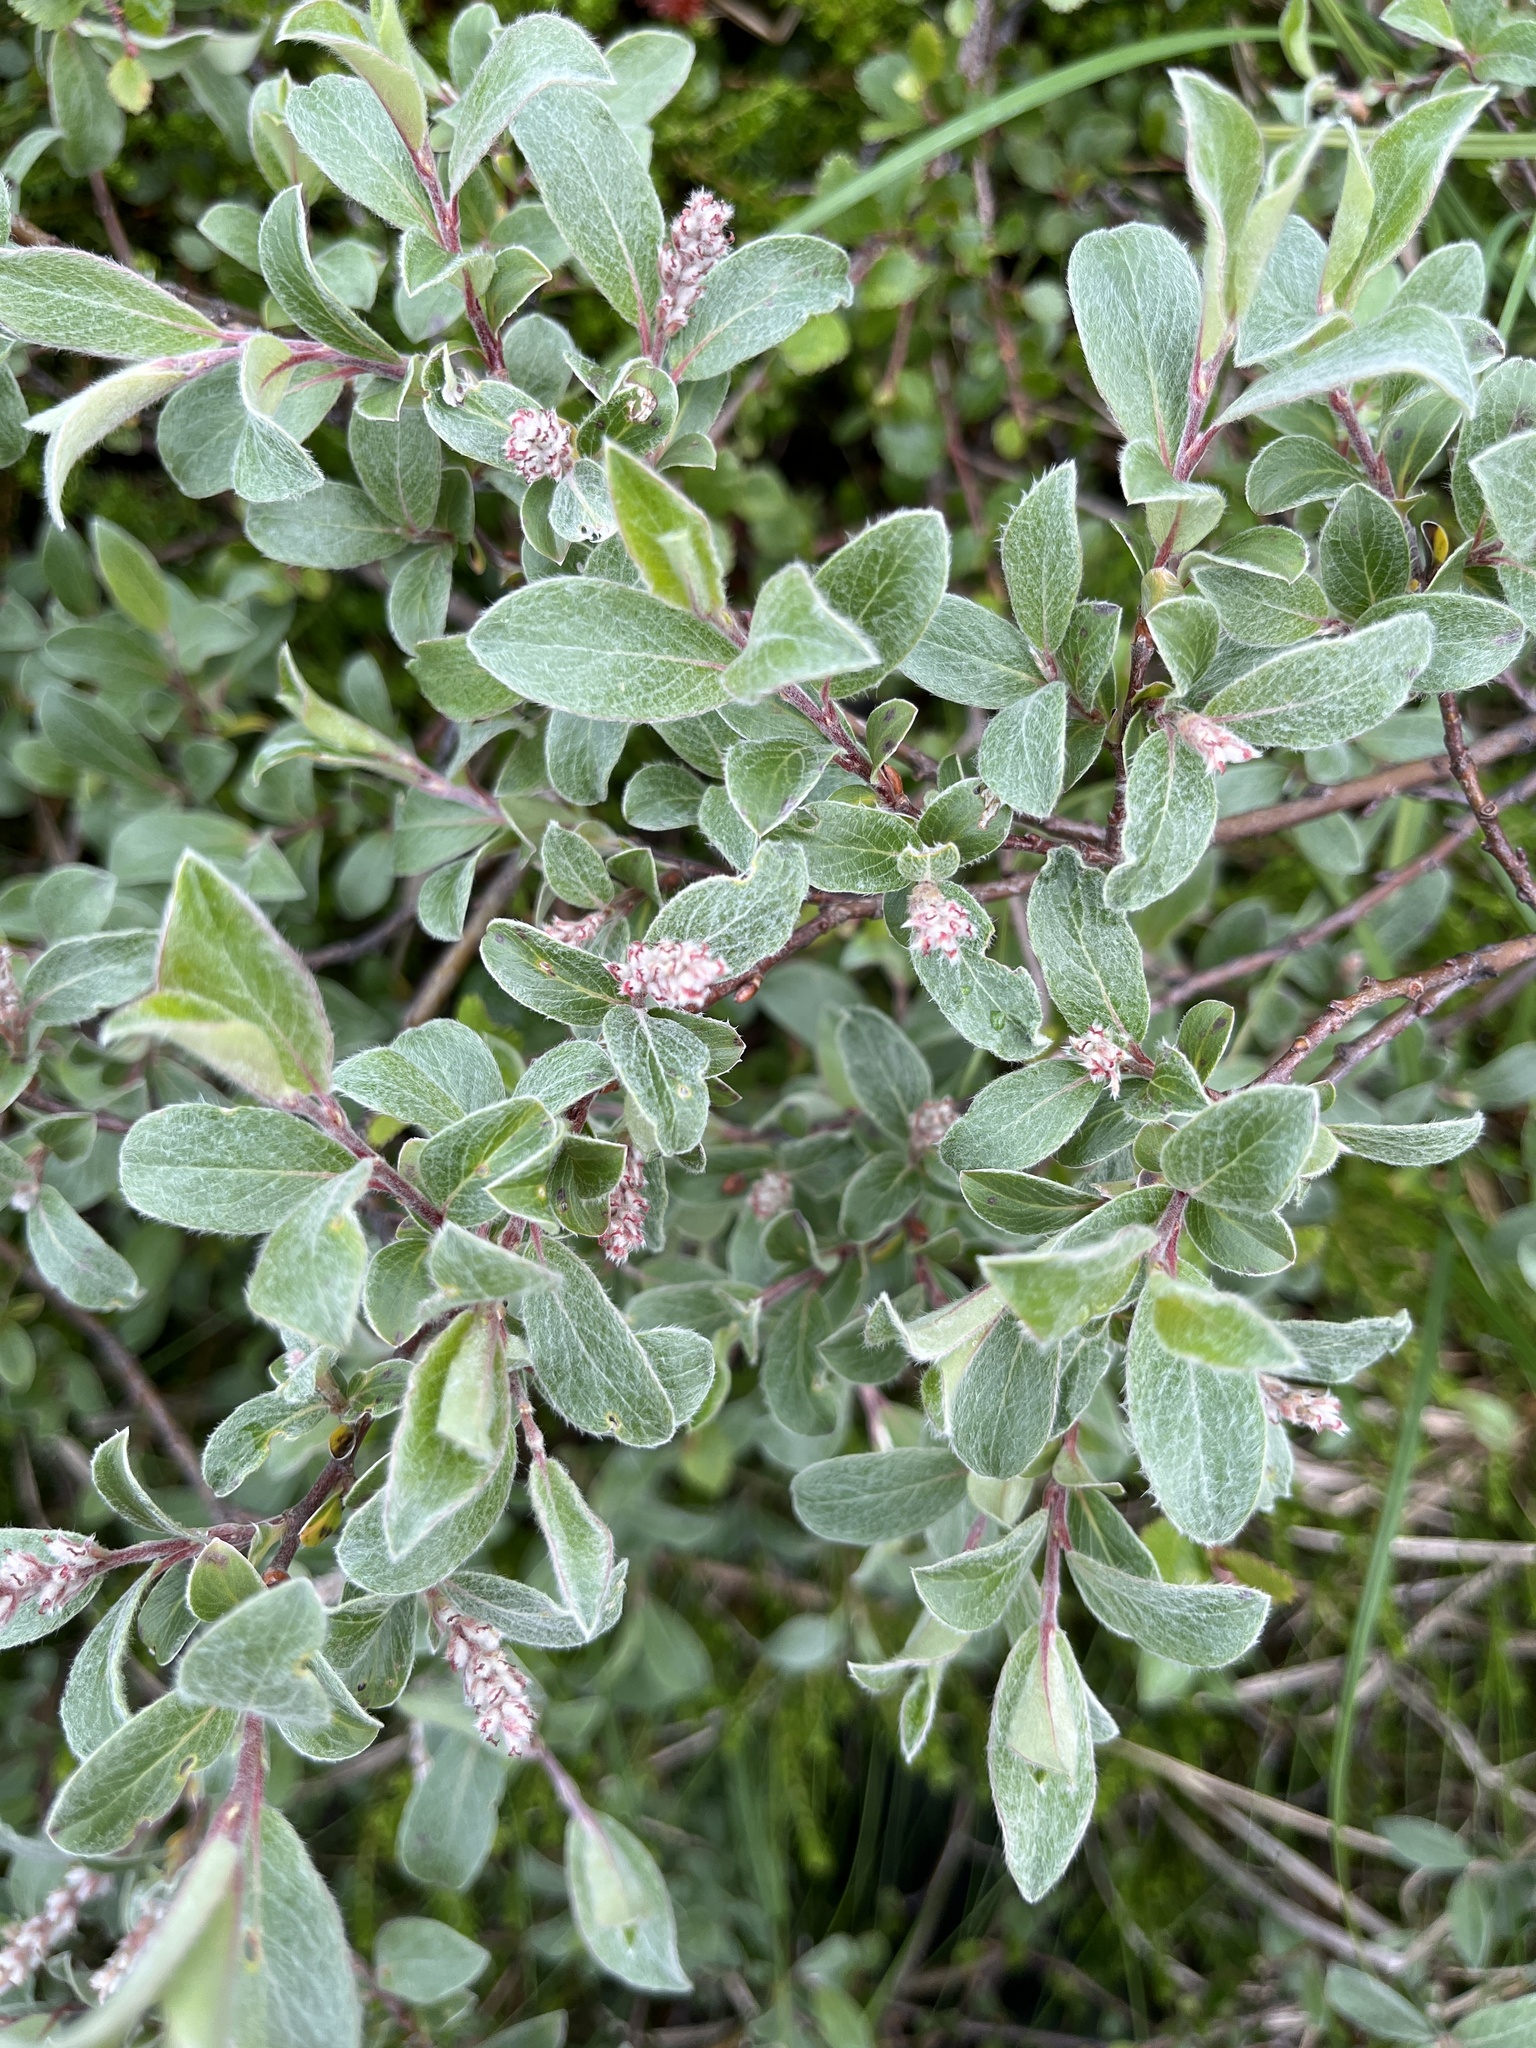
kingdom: Plantae
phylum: Tracheophyta
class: Magnoliopsida
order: Malpighiales
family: Salicaceae
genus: Salix
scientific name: Salix glauca
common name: Glaucous willow
